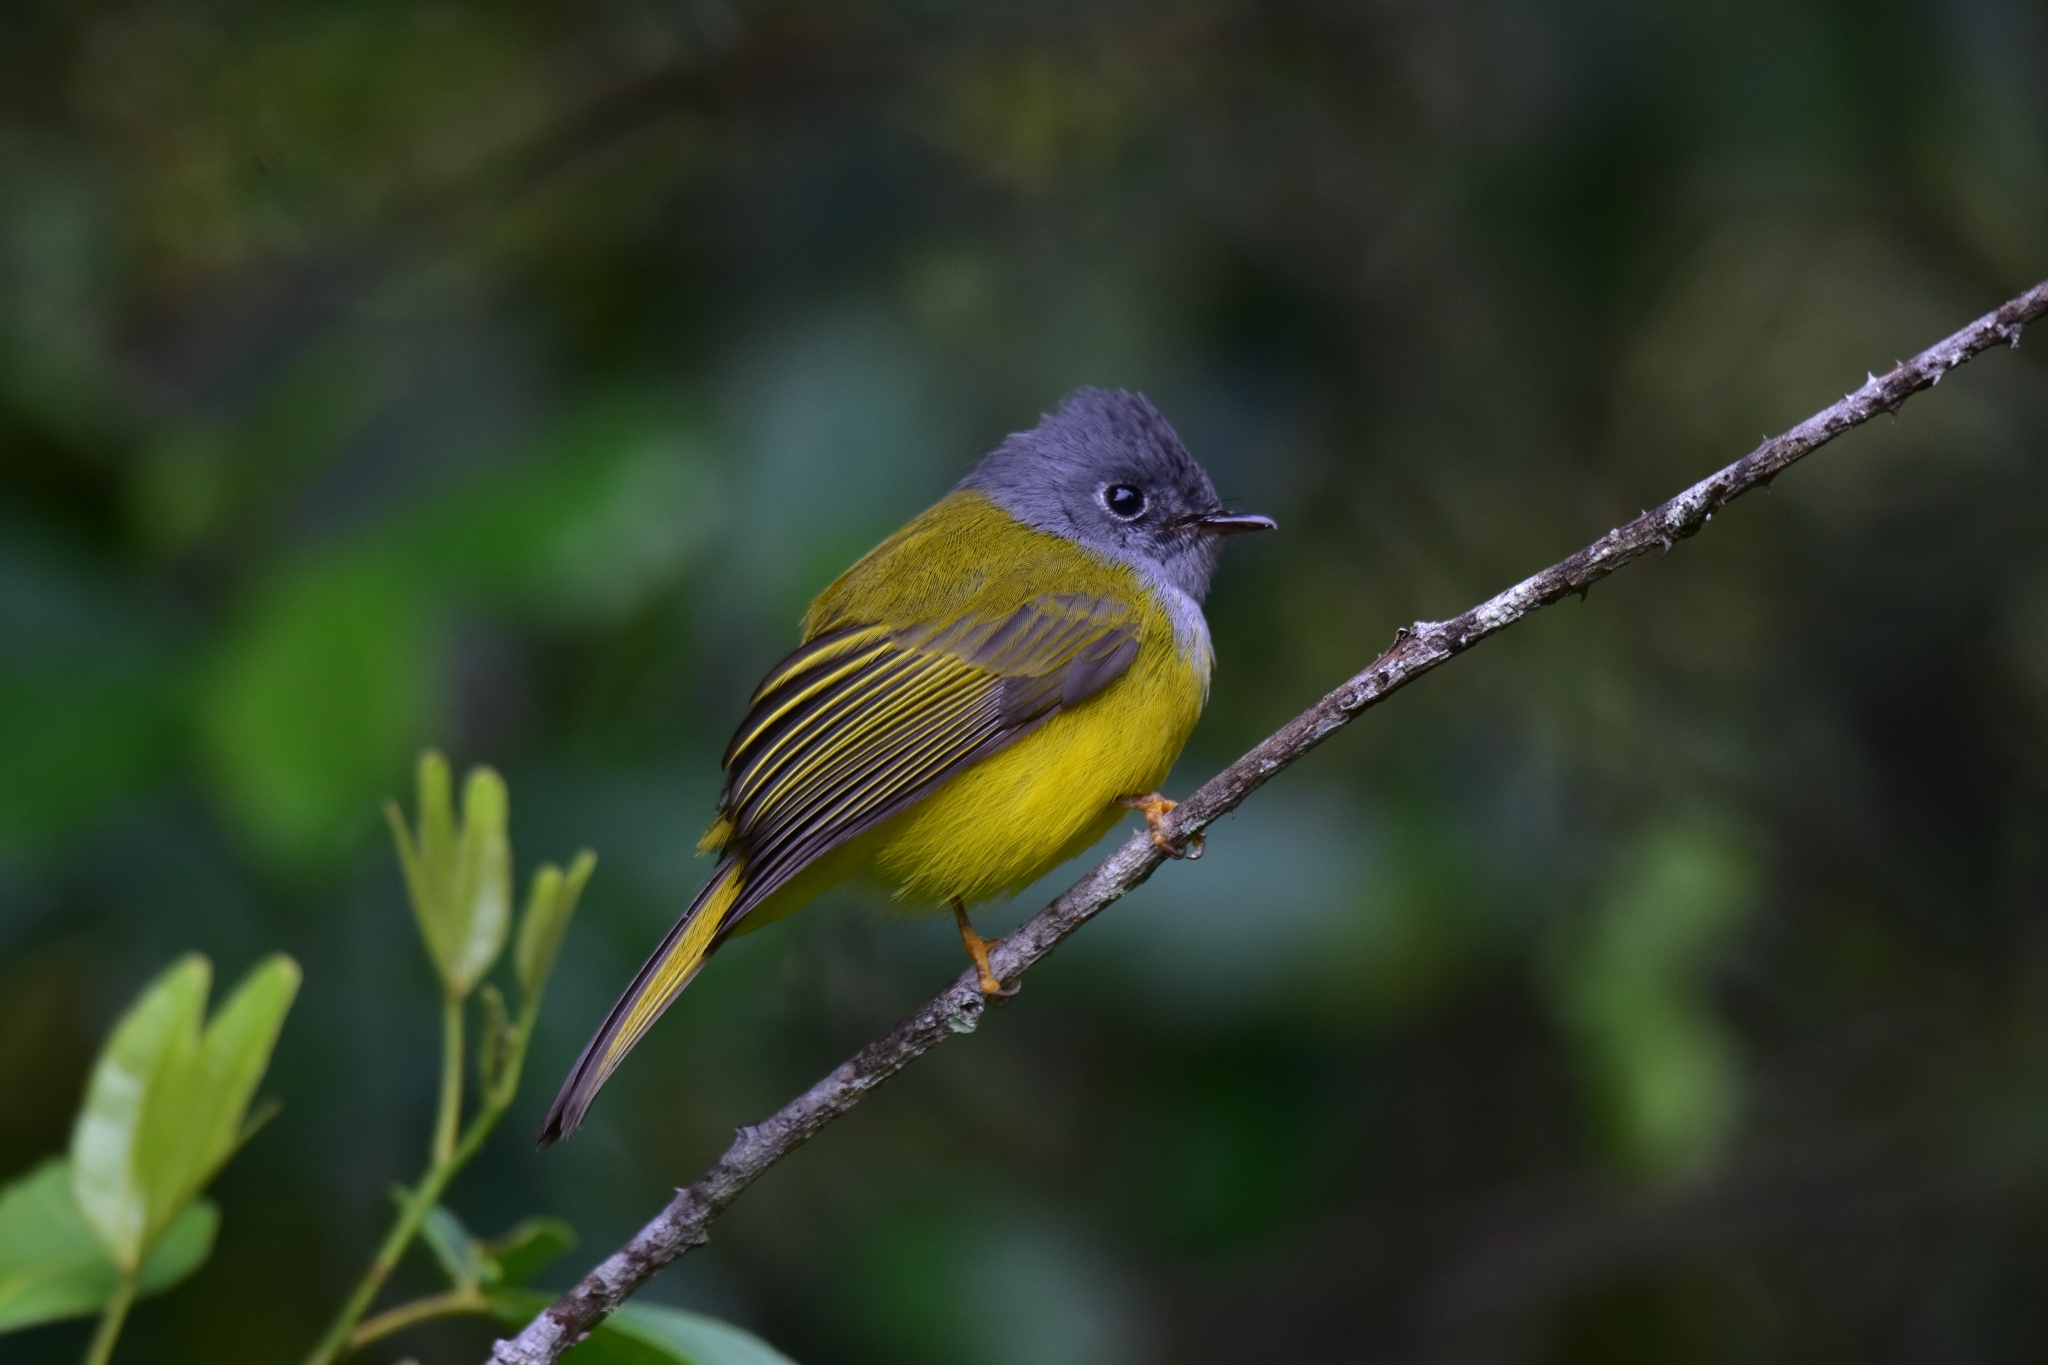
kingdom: Animalia
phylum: Chordata
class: Aves
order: Passeriformes
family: Stenostiridae
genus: Culicicapa
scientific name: Culicicapa ceylonensis
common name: Grey-headed canary-flycatcher
